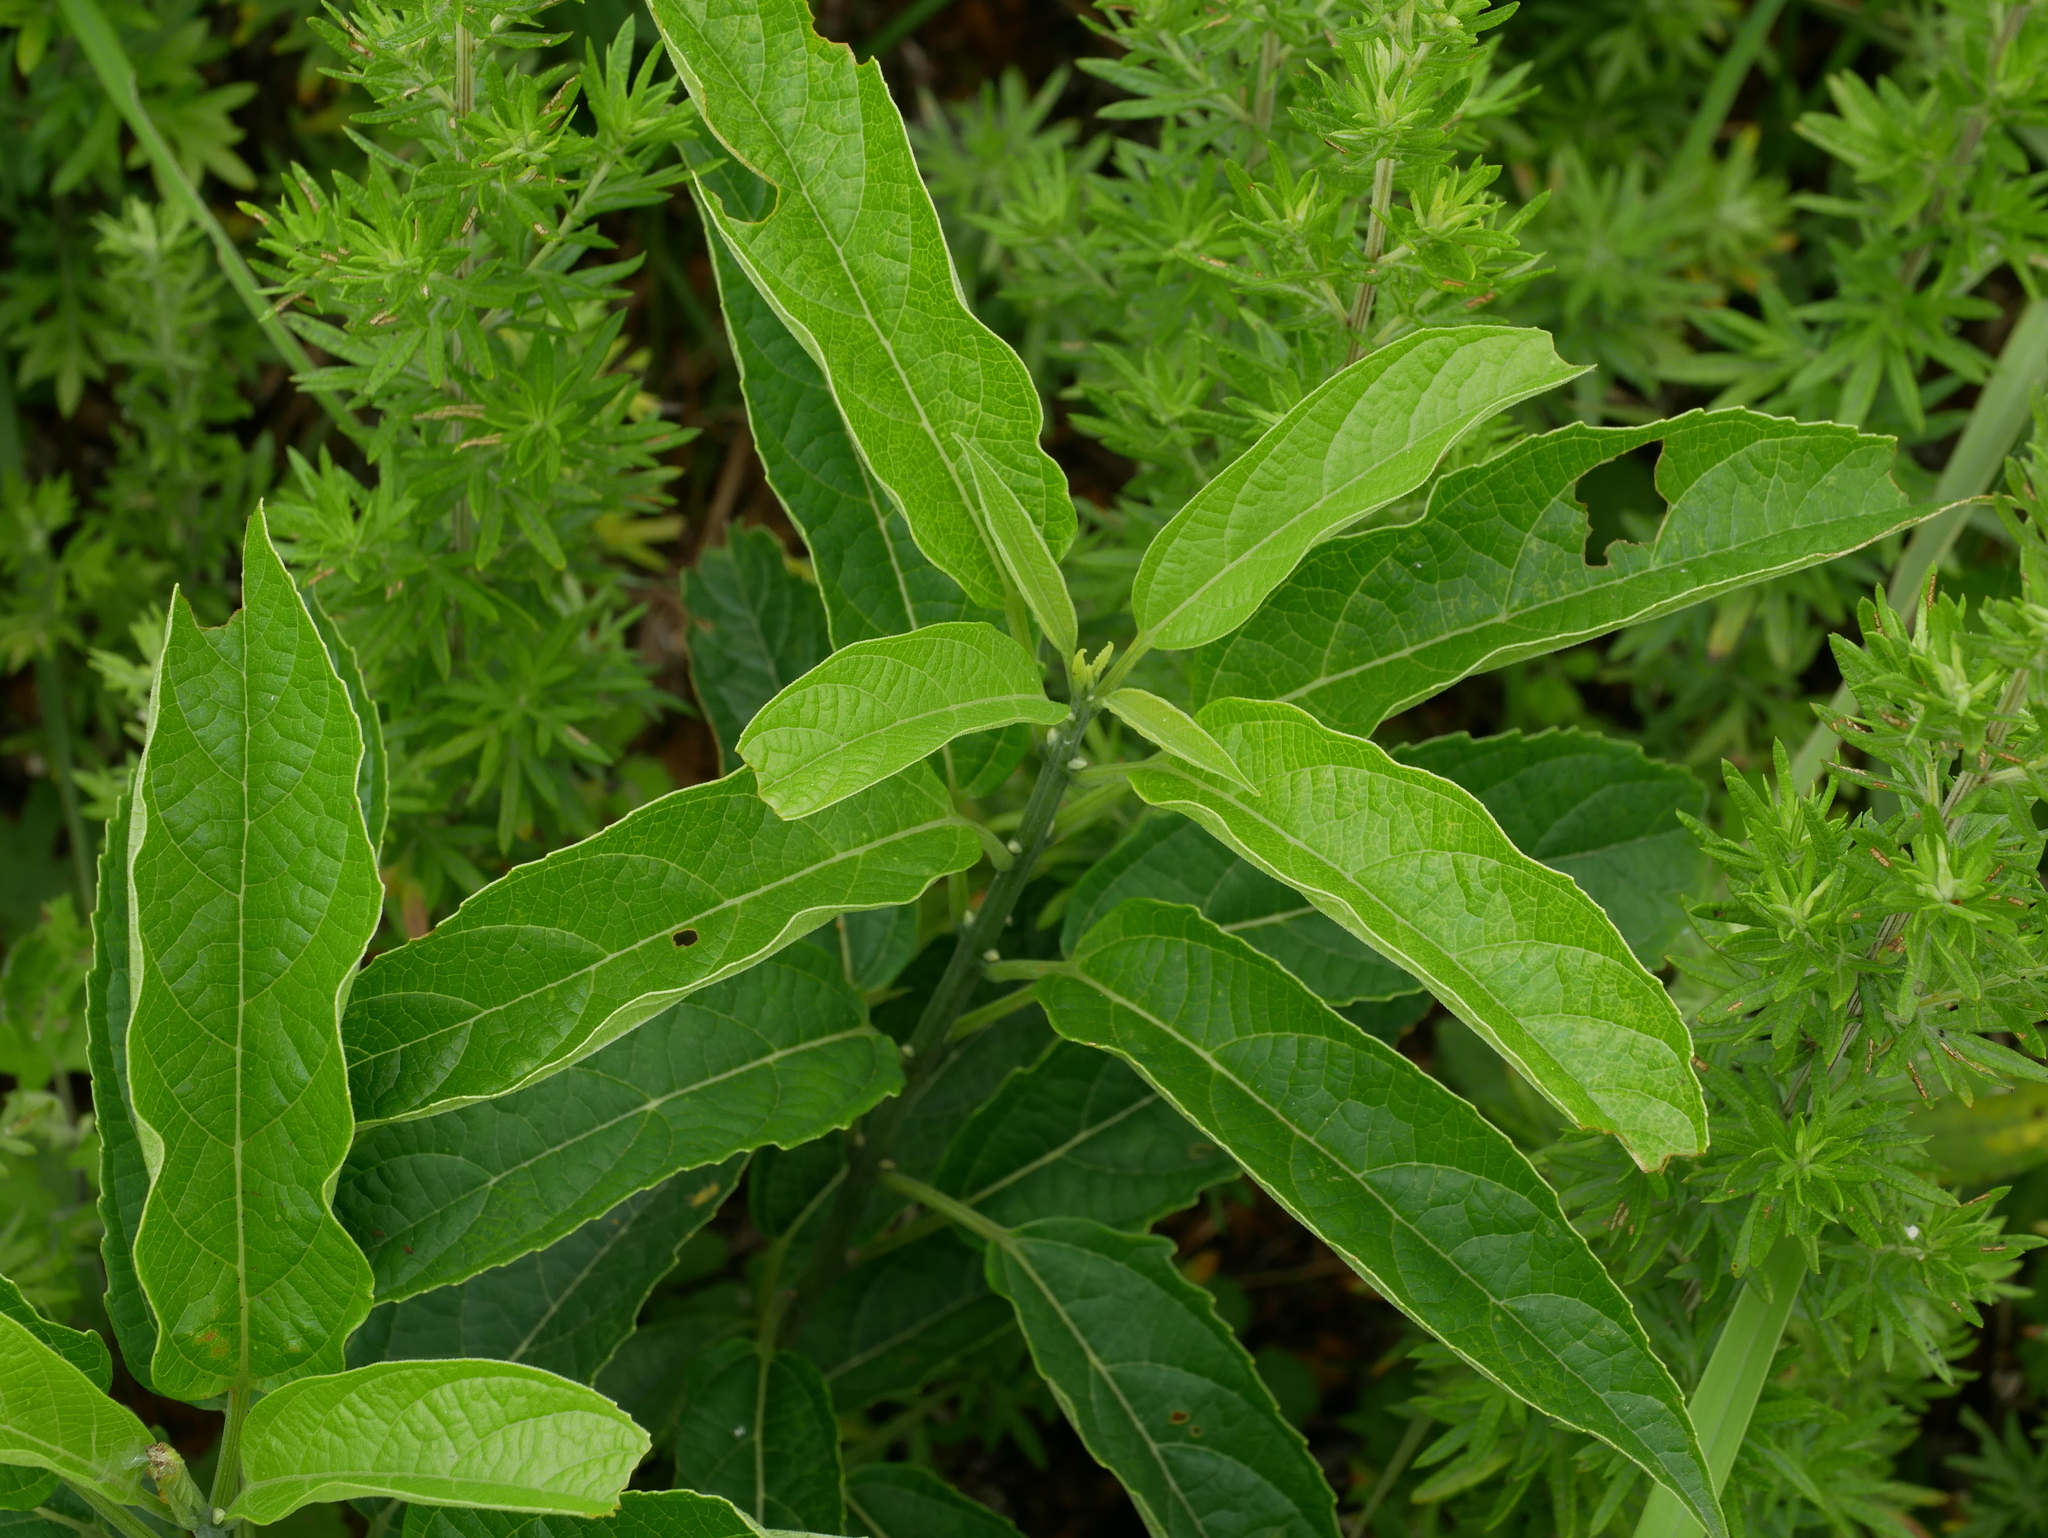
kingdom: Plantae
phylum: Tracheophyta
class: Magnoliopsida
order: Lamiales
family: Lamiaceae
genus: Clerodendrum
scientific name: Clerodendrum cyrtophyllum
